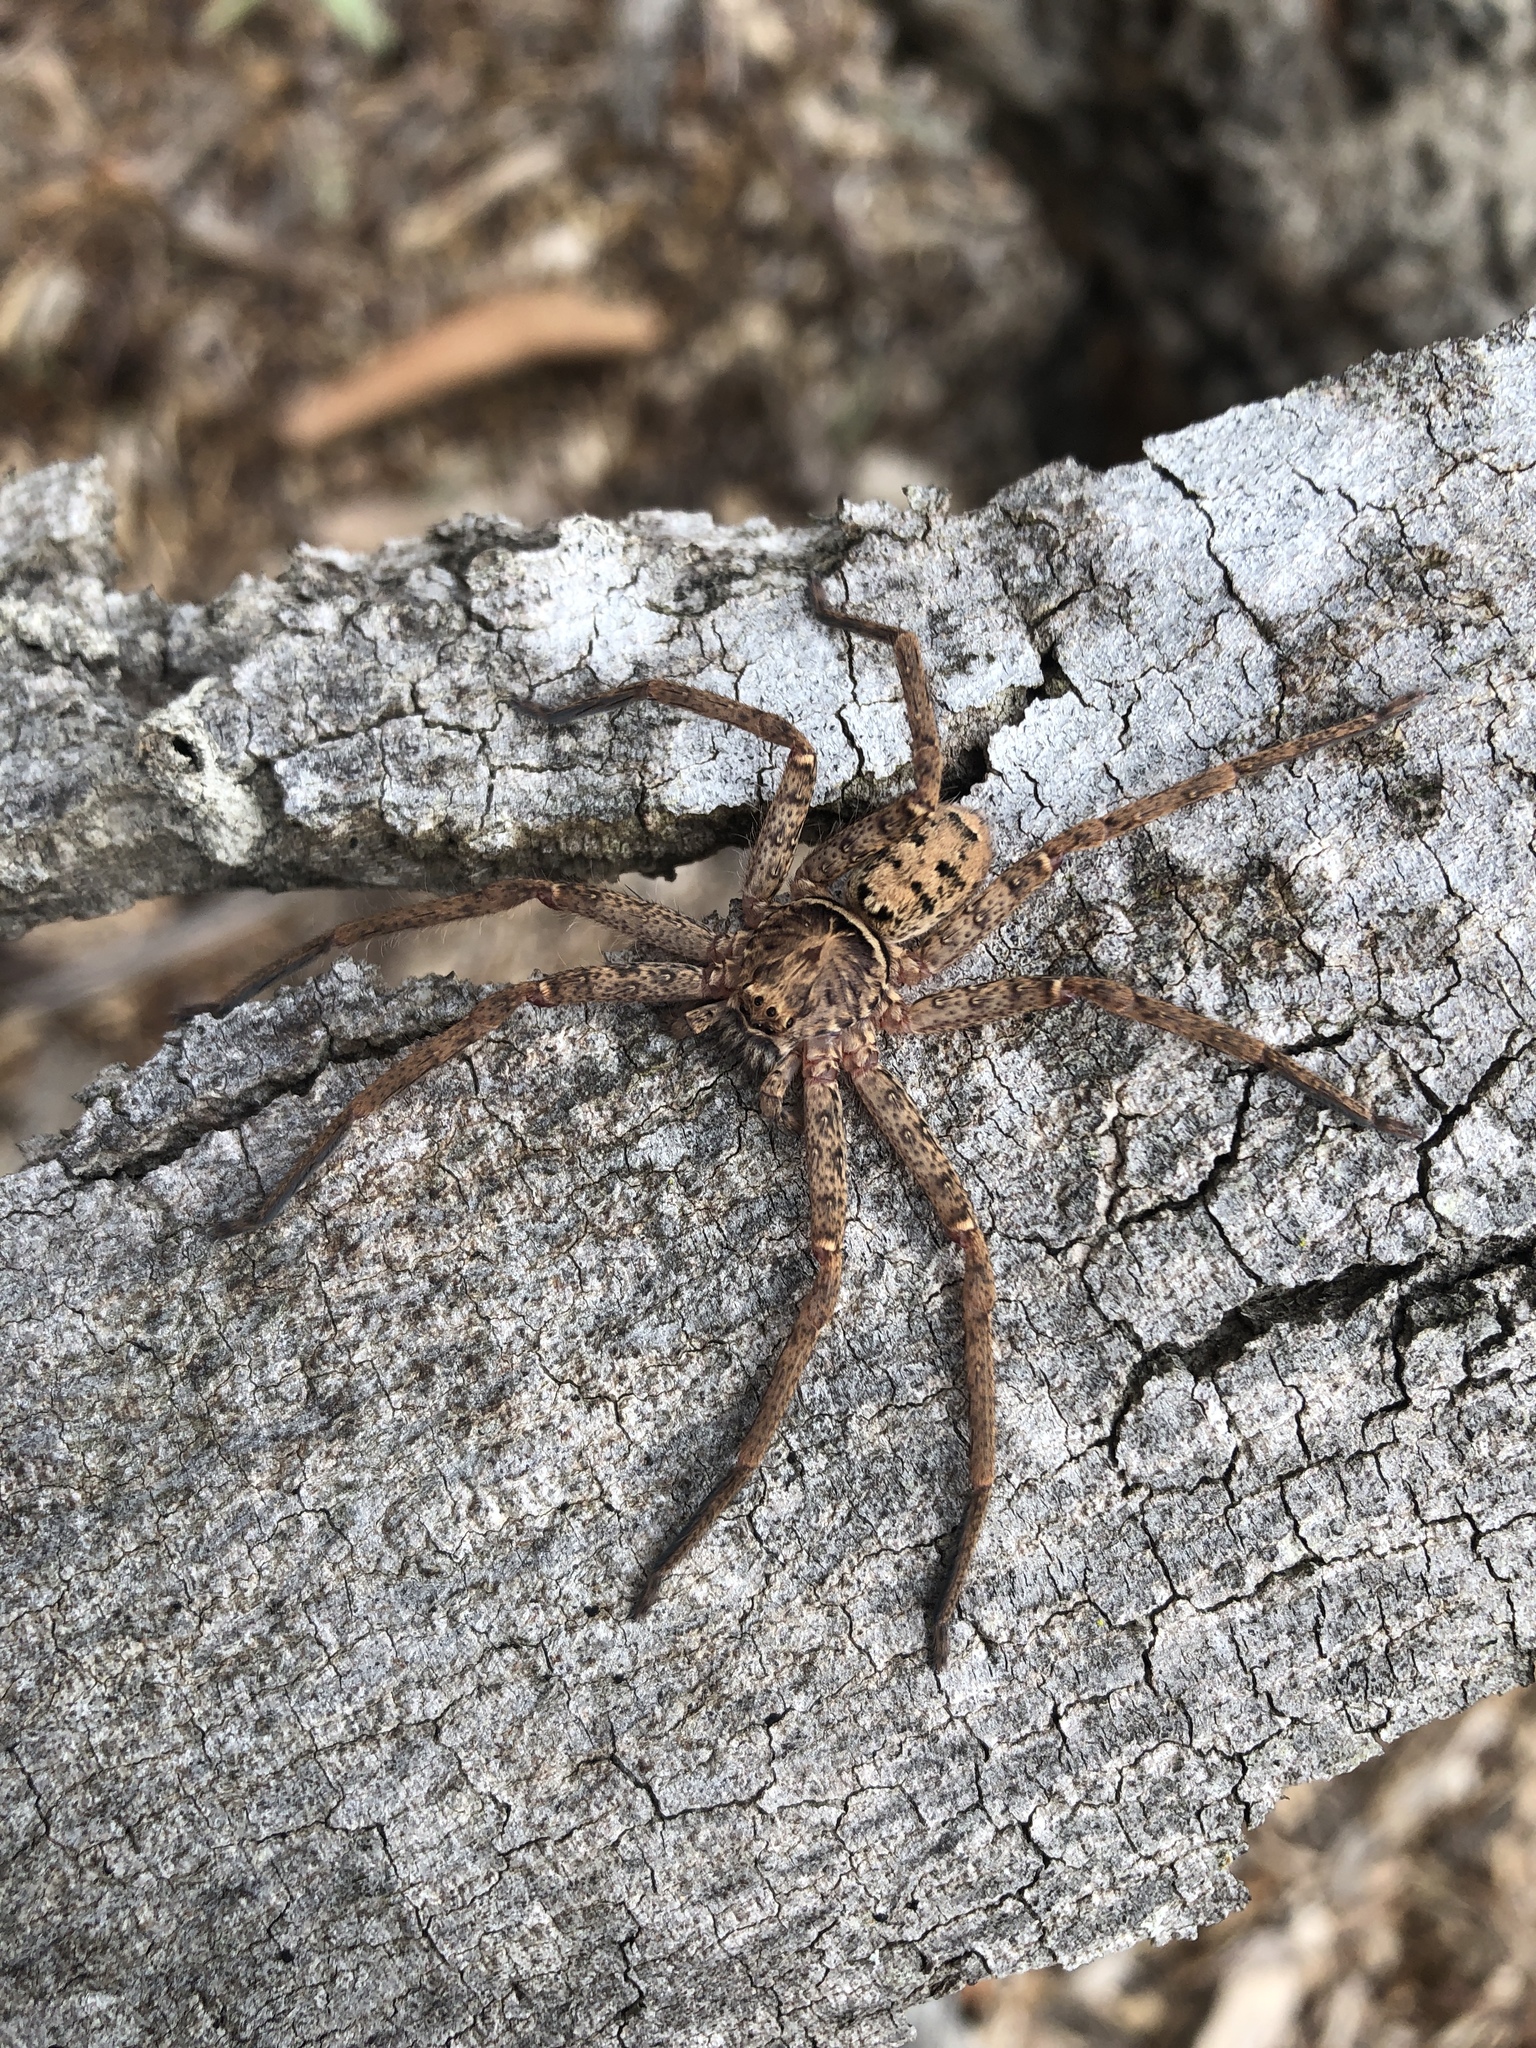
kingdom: Animalia
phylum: Arthropoda
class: Arachnida
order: Araneae
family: Sparassidae
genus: Heteropoda
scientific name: Heteropoda jugulans
